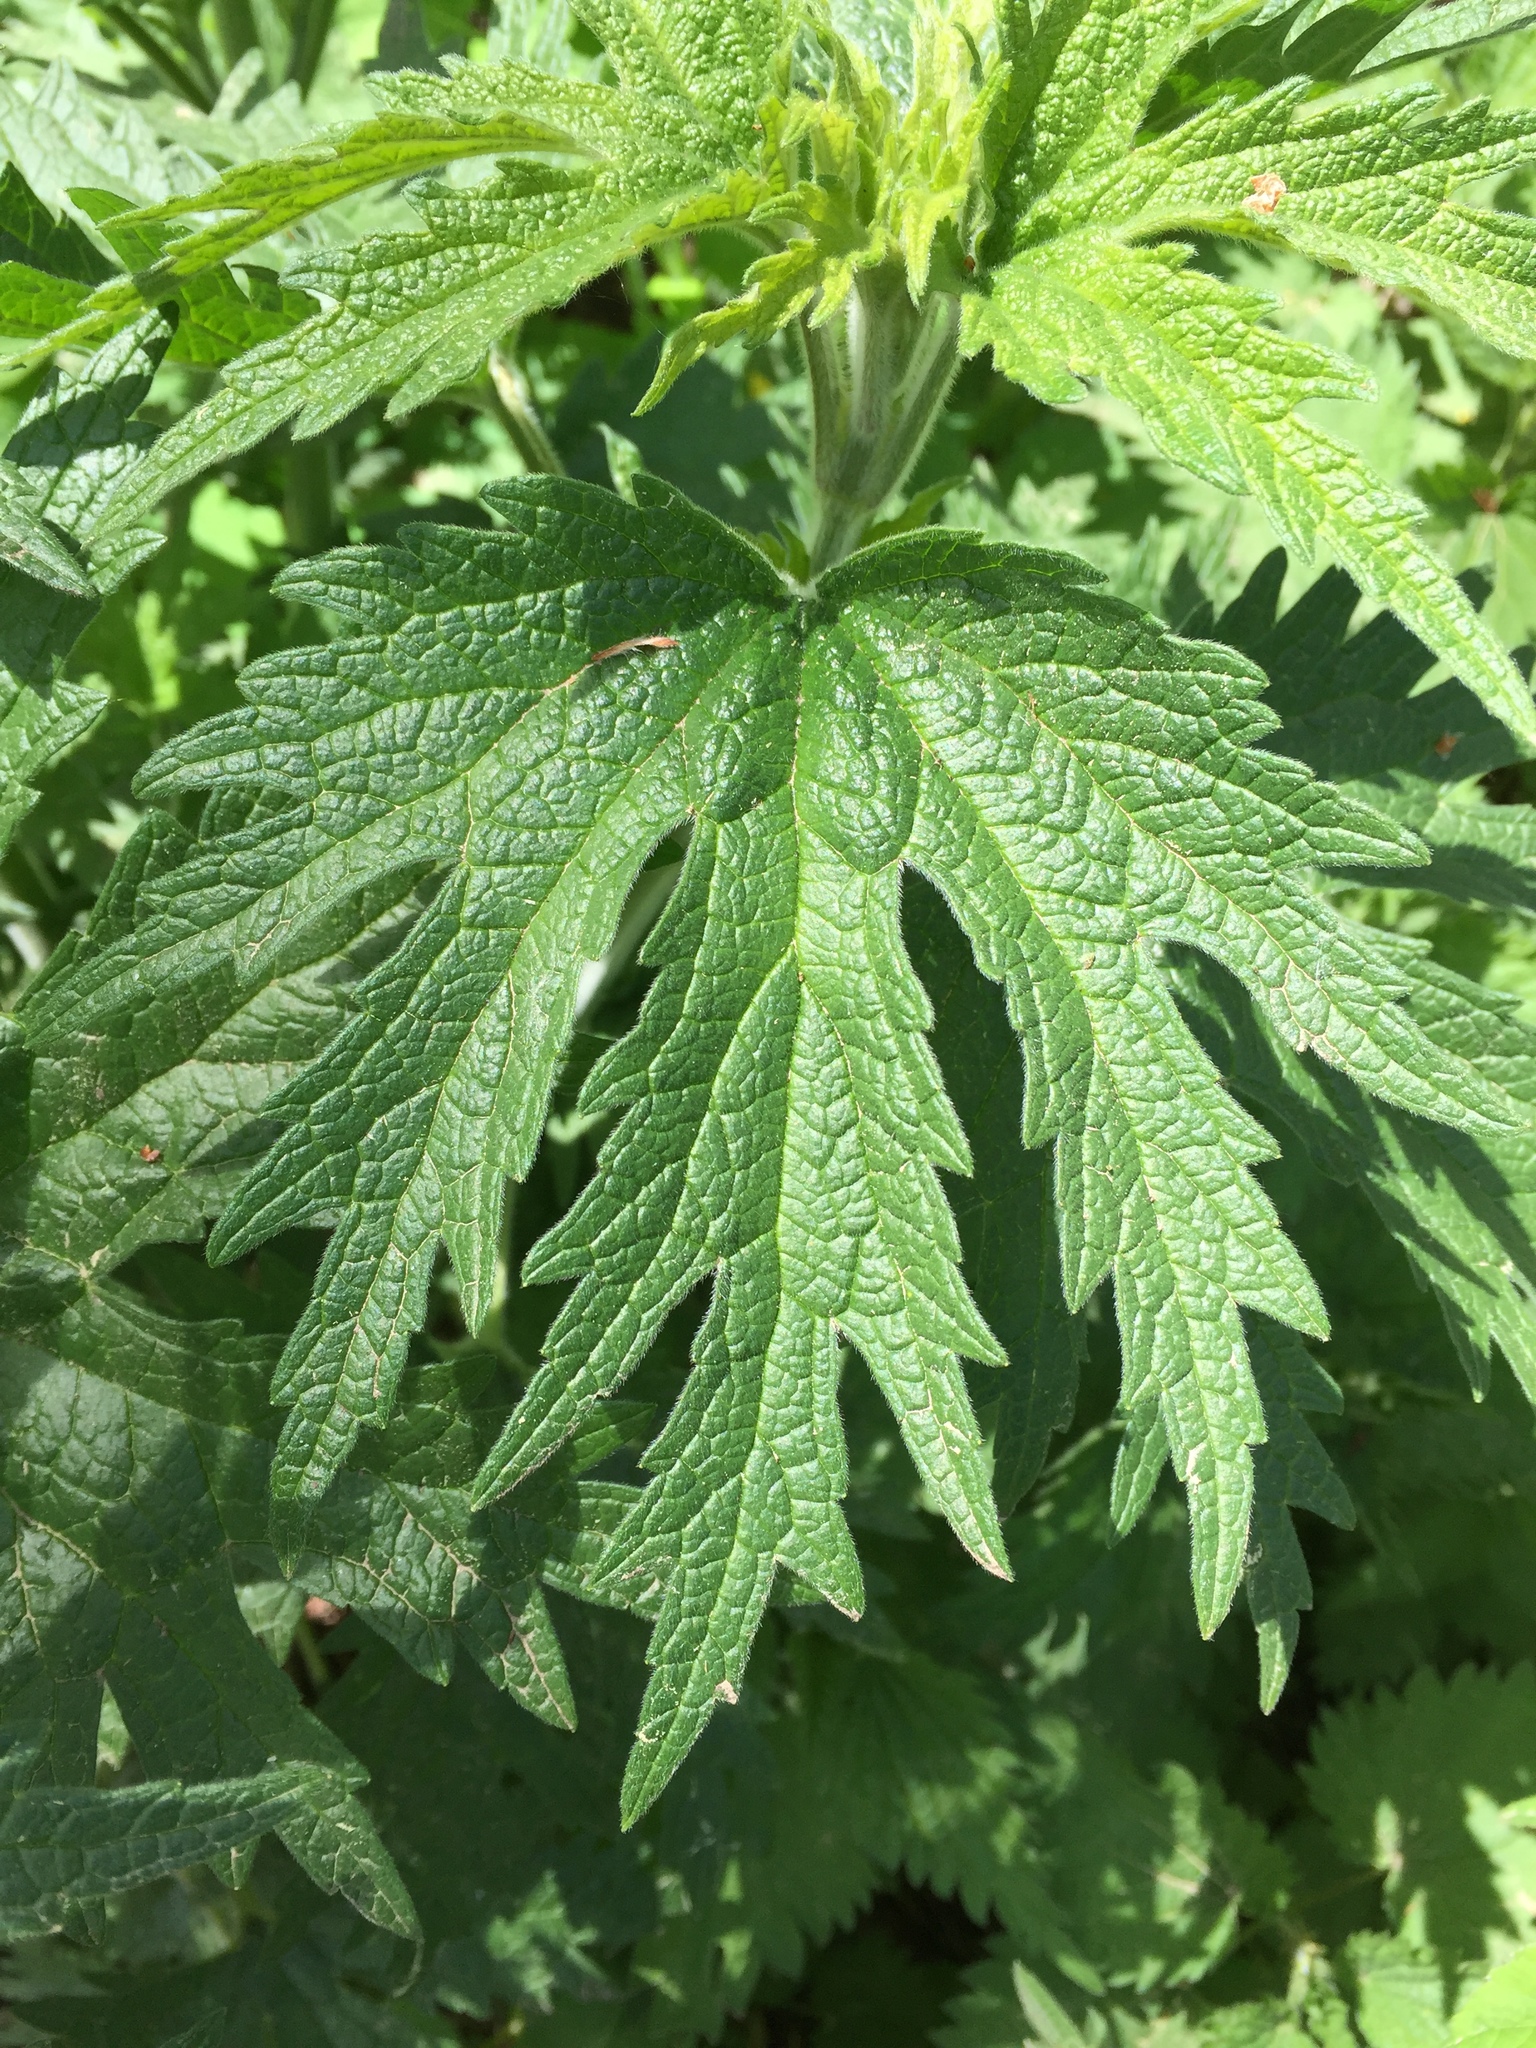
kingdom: Plantae
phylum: Tracheophyta
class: Magnoliopsida
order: Lamiales
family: Lamiaceae
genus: Leonurus
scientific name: Leonurus quinquelobatus
